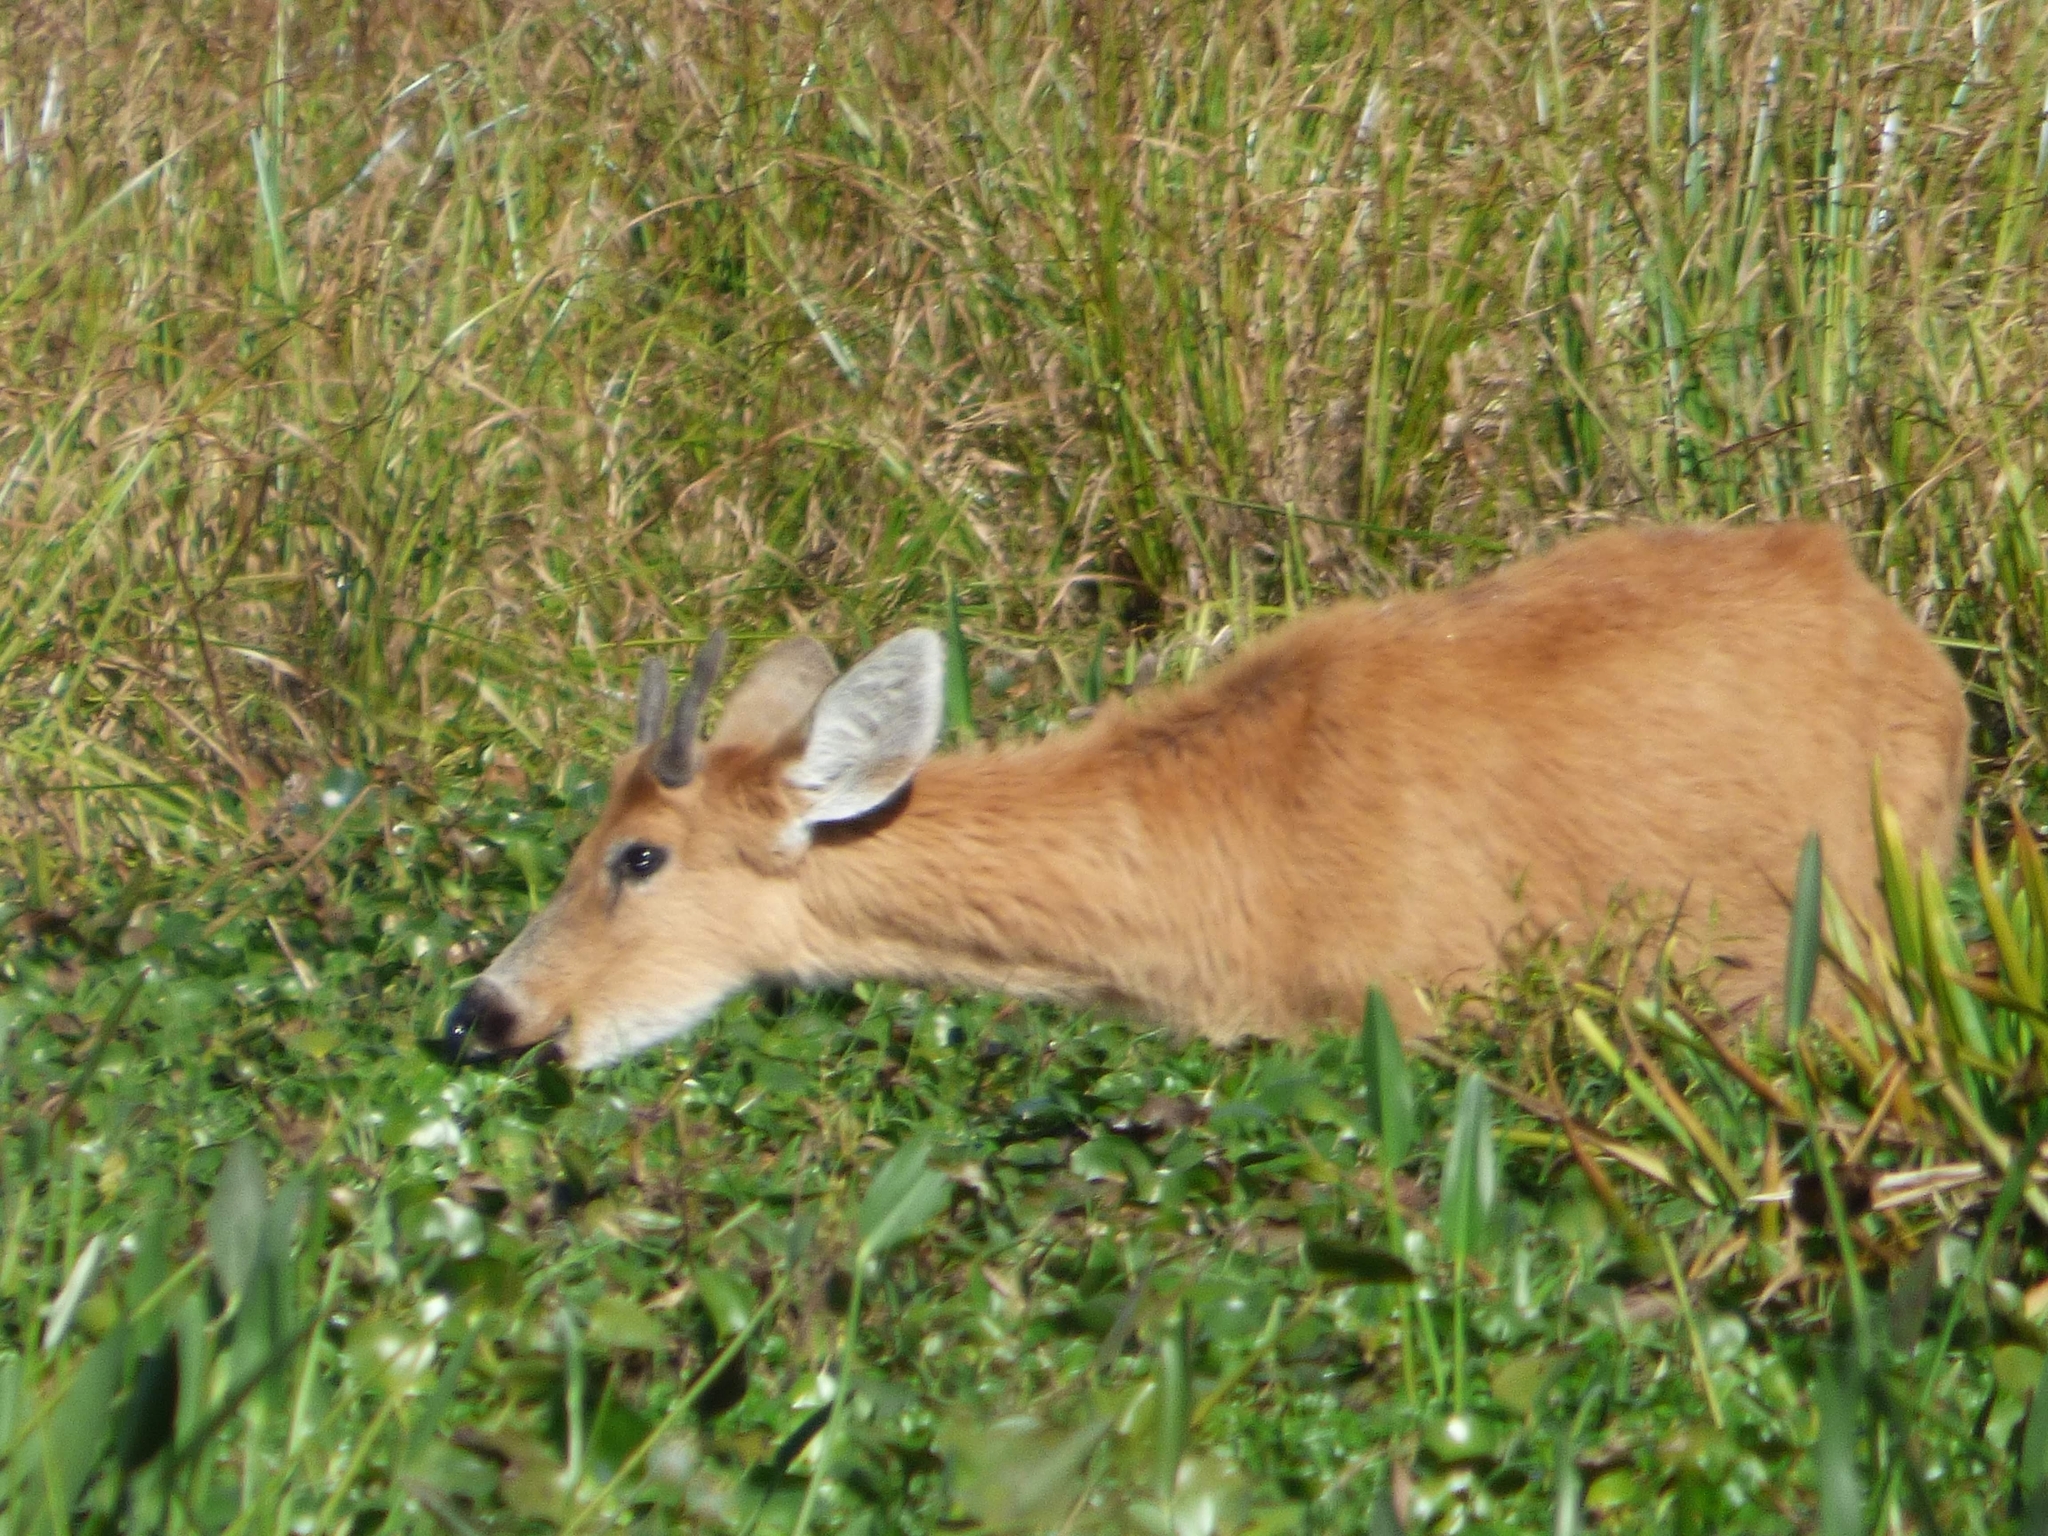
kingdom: Animalia
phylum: Chordata
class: Mammalia
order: Artiodactyla
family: Cervidae
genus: Blastocerus
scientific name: Blastocerus dichotomus
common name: Marsh deer
